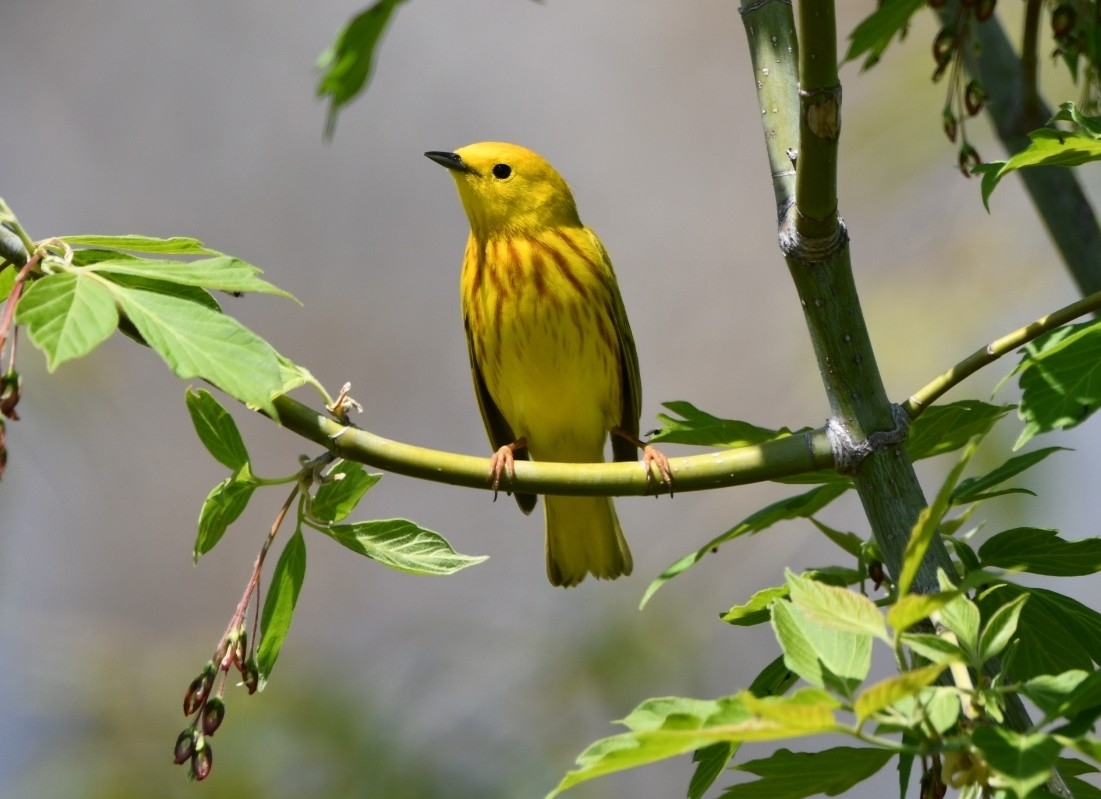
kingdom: Animalia
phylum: Chordata
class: Aves
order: Passeriformes
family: Parulidae
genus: Setophaga
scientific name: Setophaga petechia
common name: Yellow warbler
